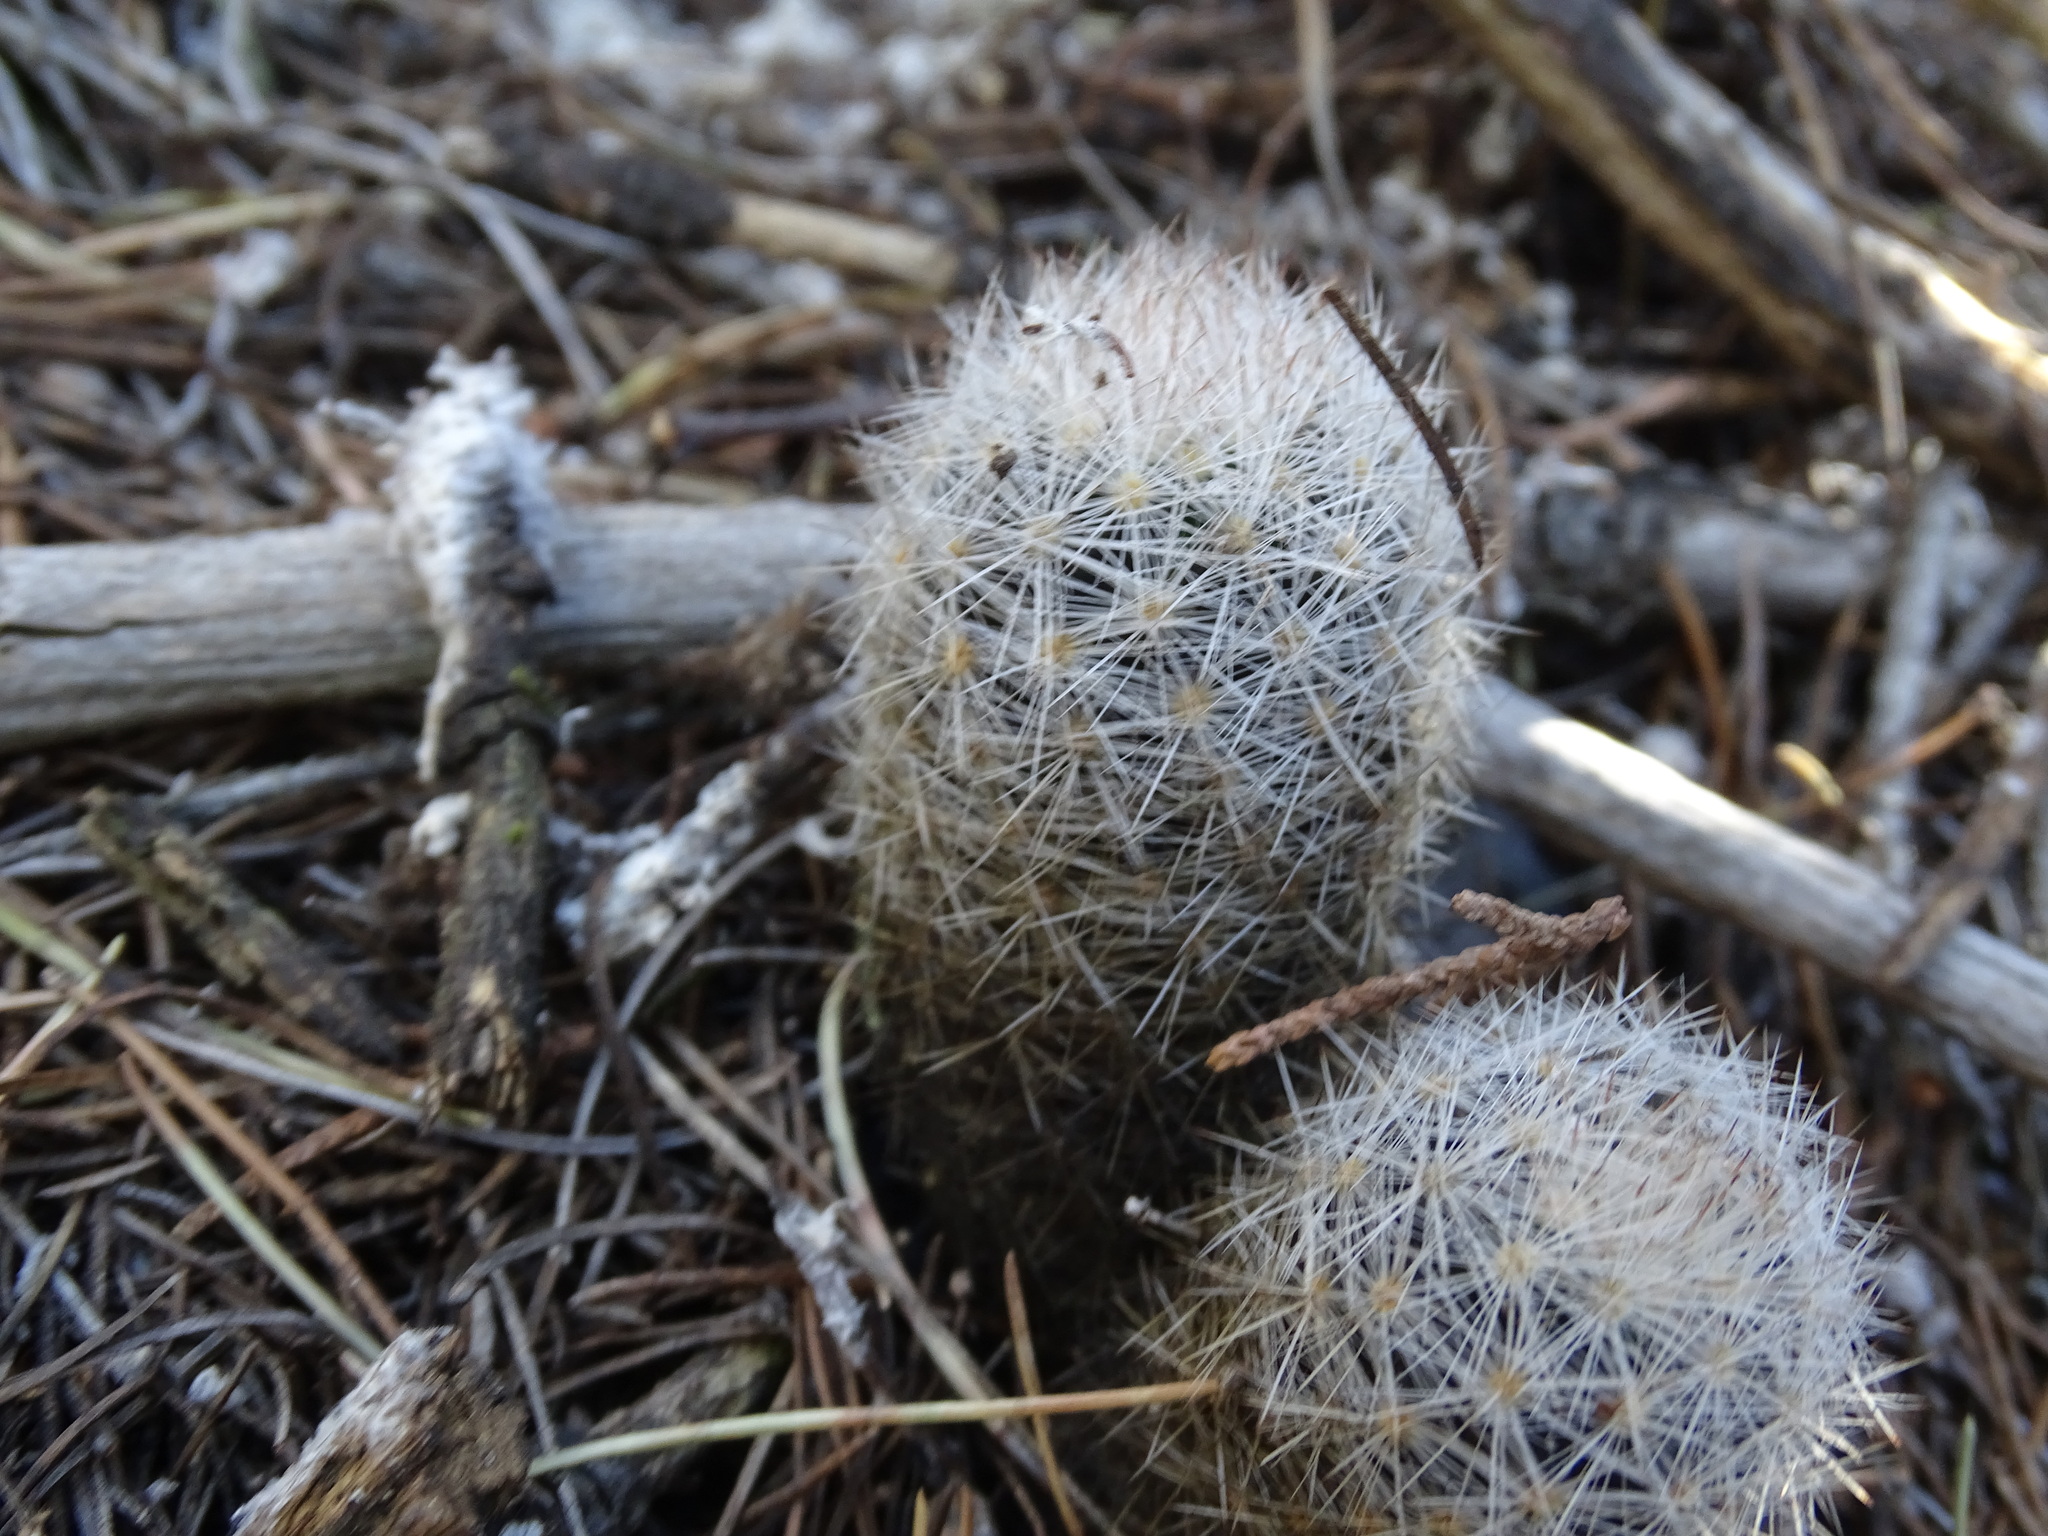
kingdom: Plantae
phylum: Tracheophyta
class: Magnoliopsida
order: Caryophyllales
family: Cactaceae
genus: Mammillaria
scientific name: Mammillaria candida
